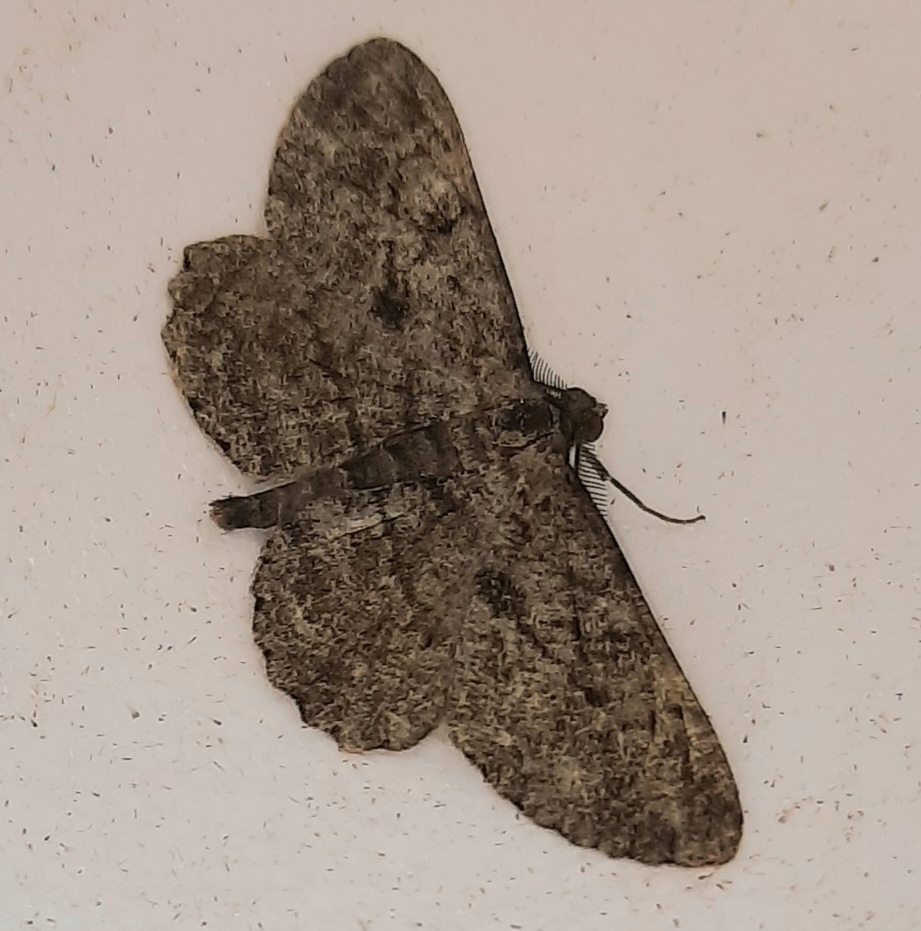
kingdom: Animalia
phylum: Arthropoda
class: Insecta
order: Lepidoptera
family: Geometridae
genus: Peribatodes
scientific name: Peribatodes rhomboidaria
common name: Willow beauty
